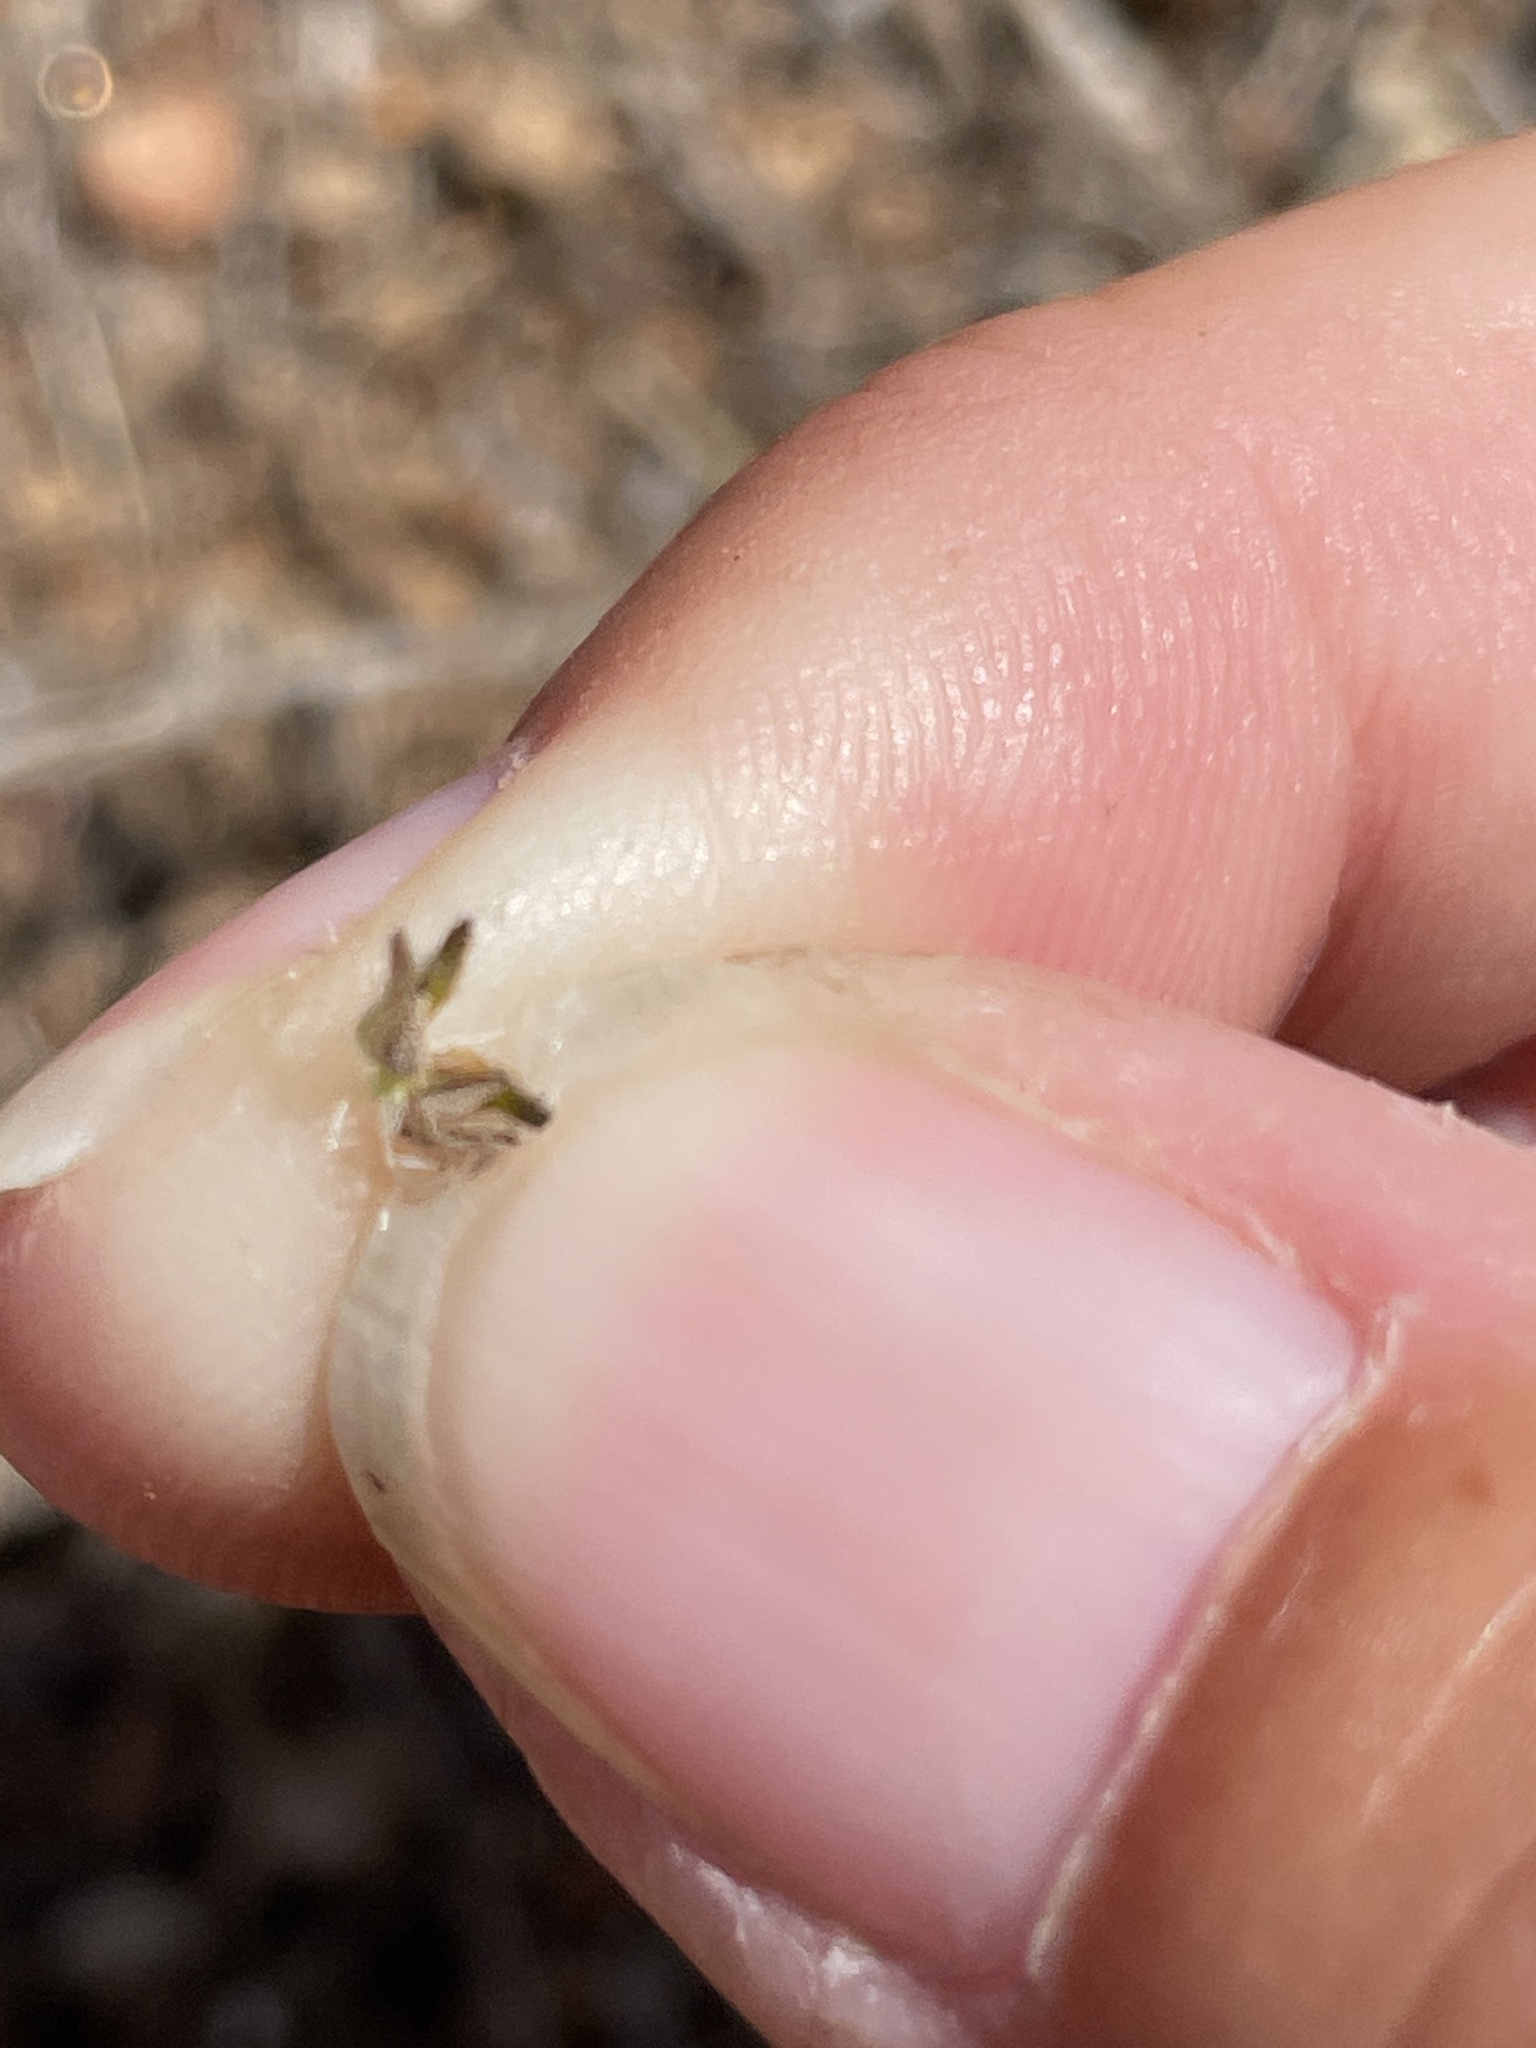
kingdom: Plantae
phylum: Tracheophyta
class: Magnoliopsida
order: Boraginales
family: Boraginaceae
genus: Cryptantha
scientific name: Cryptantha intermedia
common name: Clearwater cryptantha
